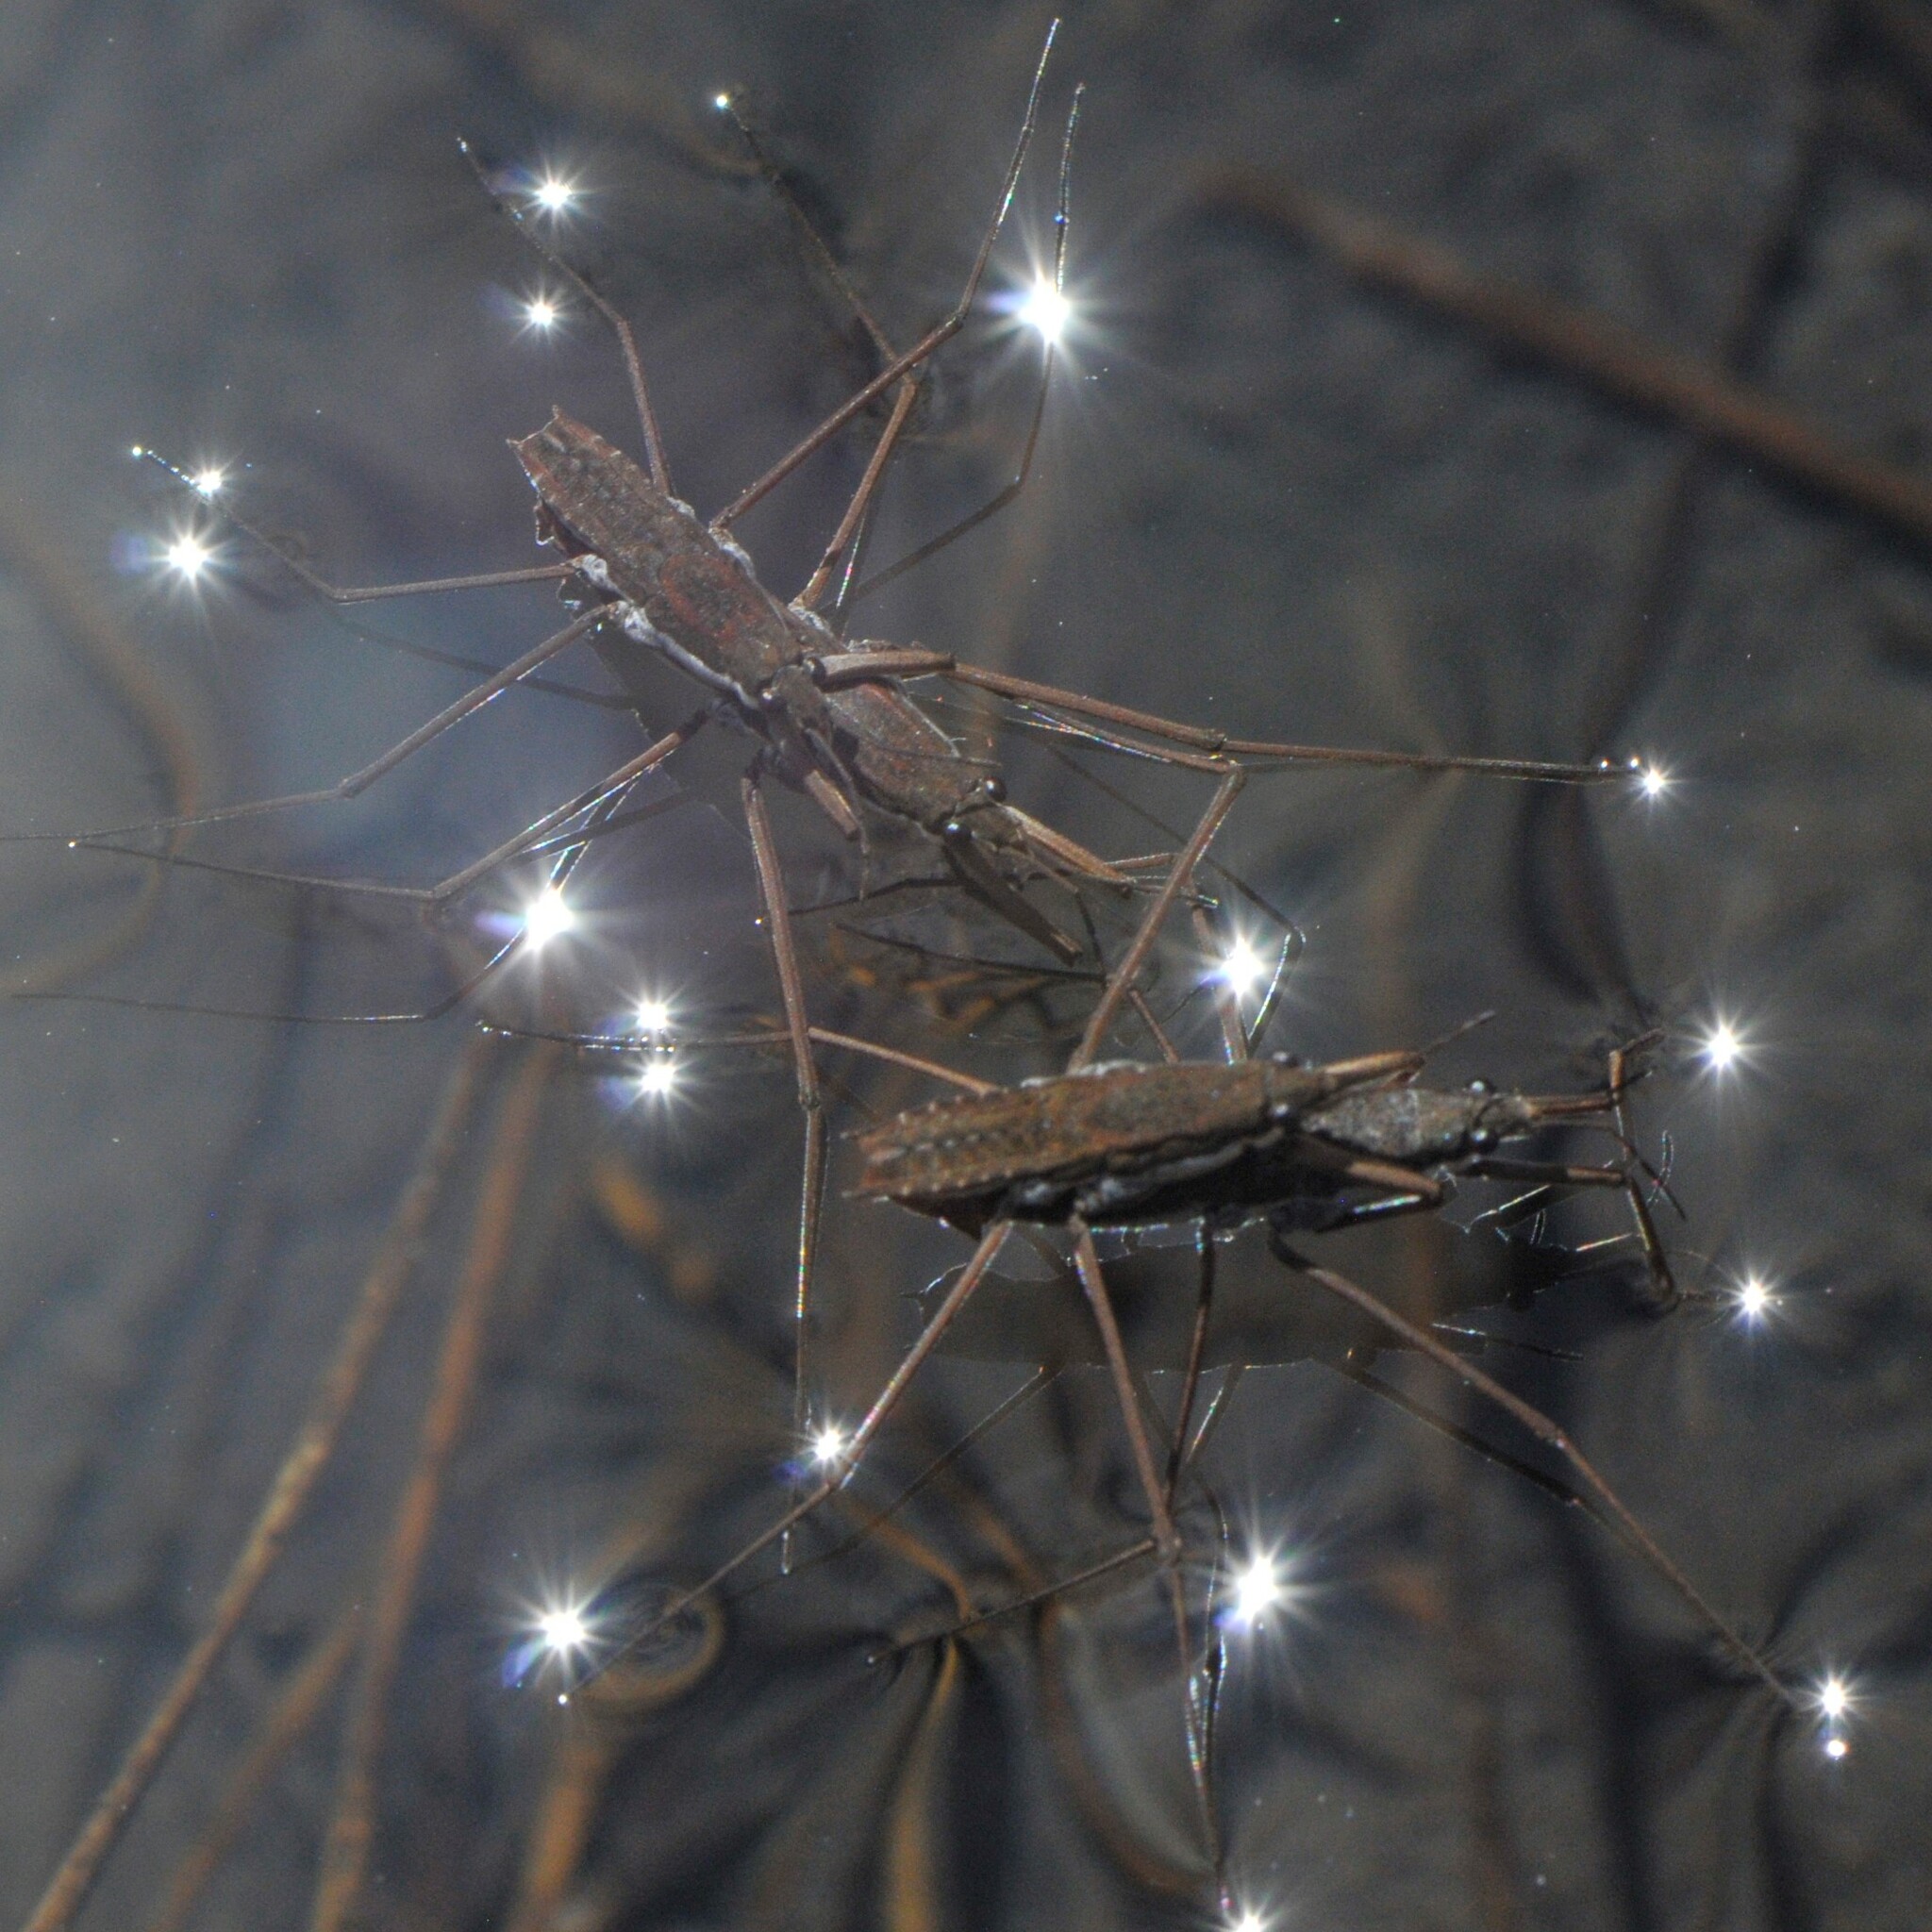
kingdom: Animalia
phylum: Arthropoda
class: Insecta
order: Hemiptera
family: Gerridae
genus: Aquarius
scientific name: Aquarius remigis
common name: Common water strider
